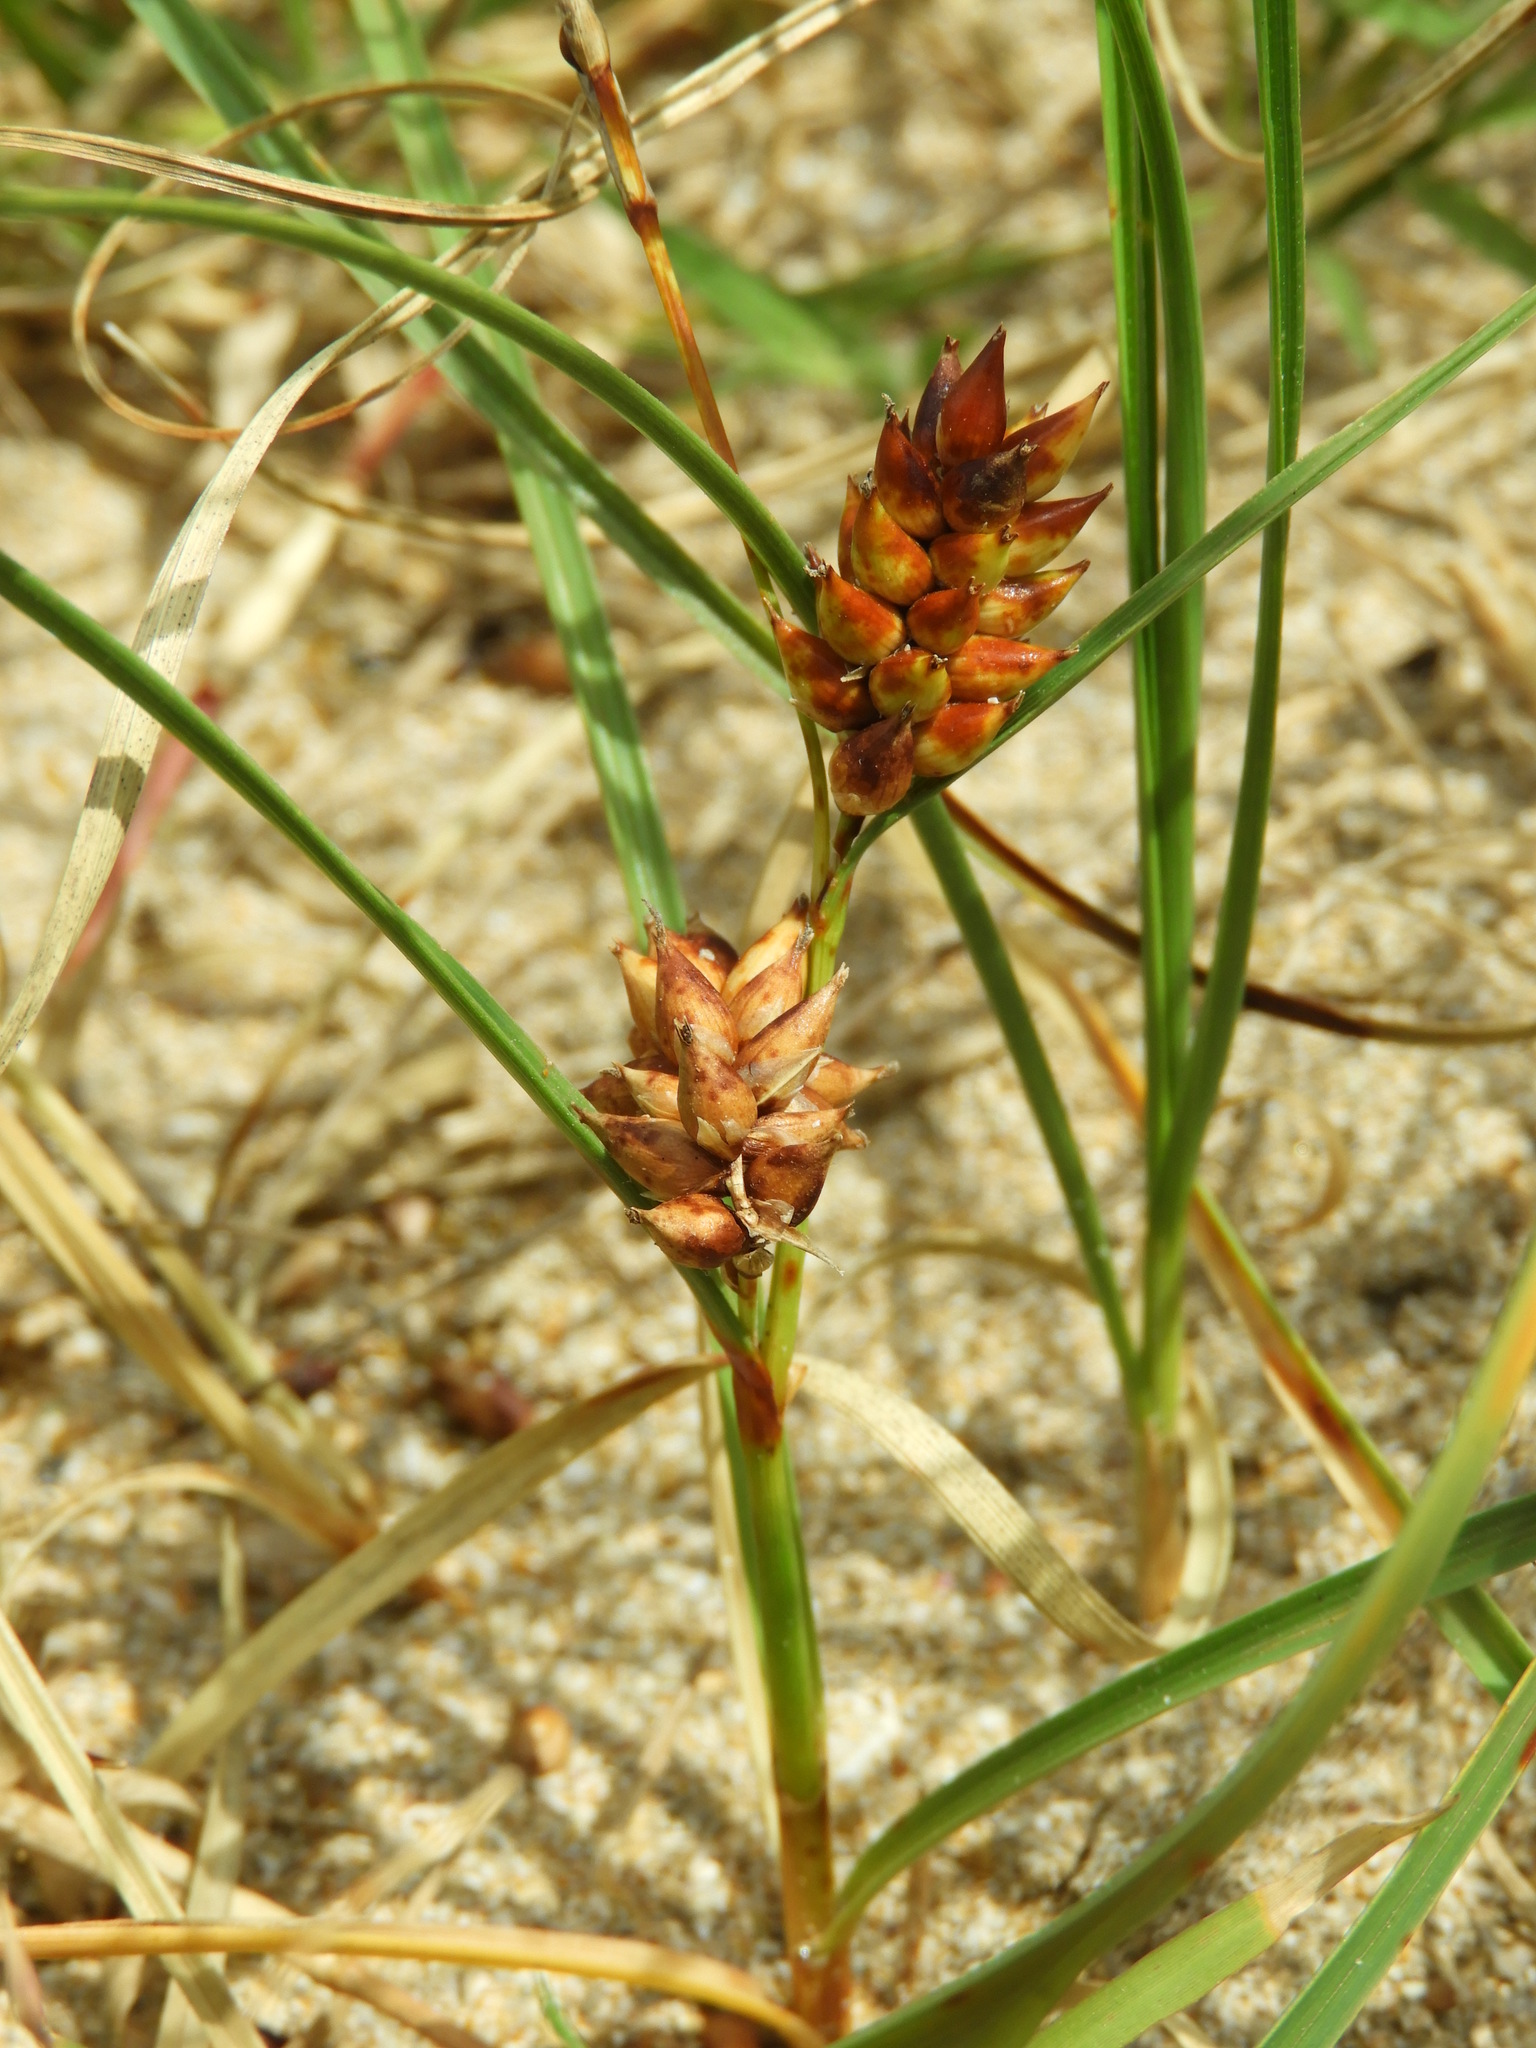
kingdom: Plantae
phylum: Tracheophyta
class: Liliopsida
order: Poales
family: Cyperaceae
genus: Carex
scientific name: Carex pumila
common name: Dwarf sedge
